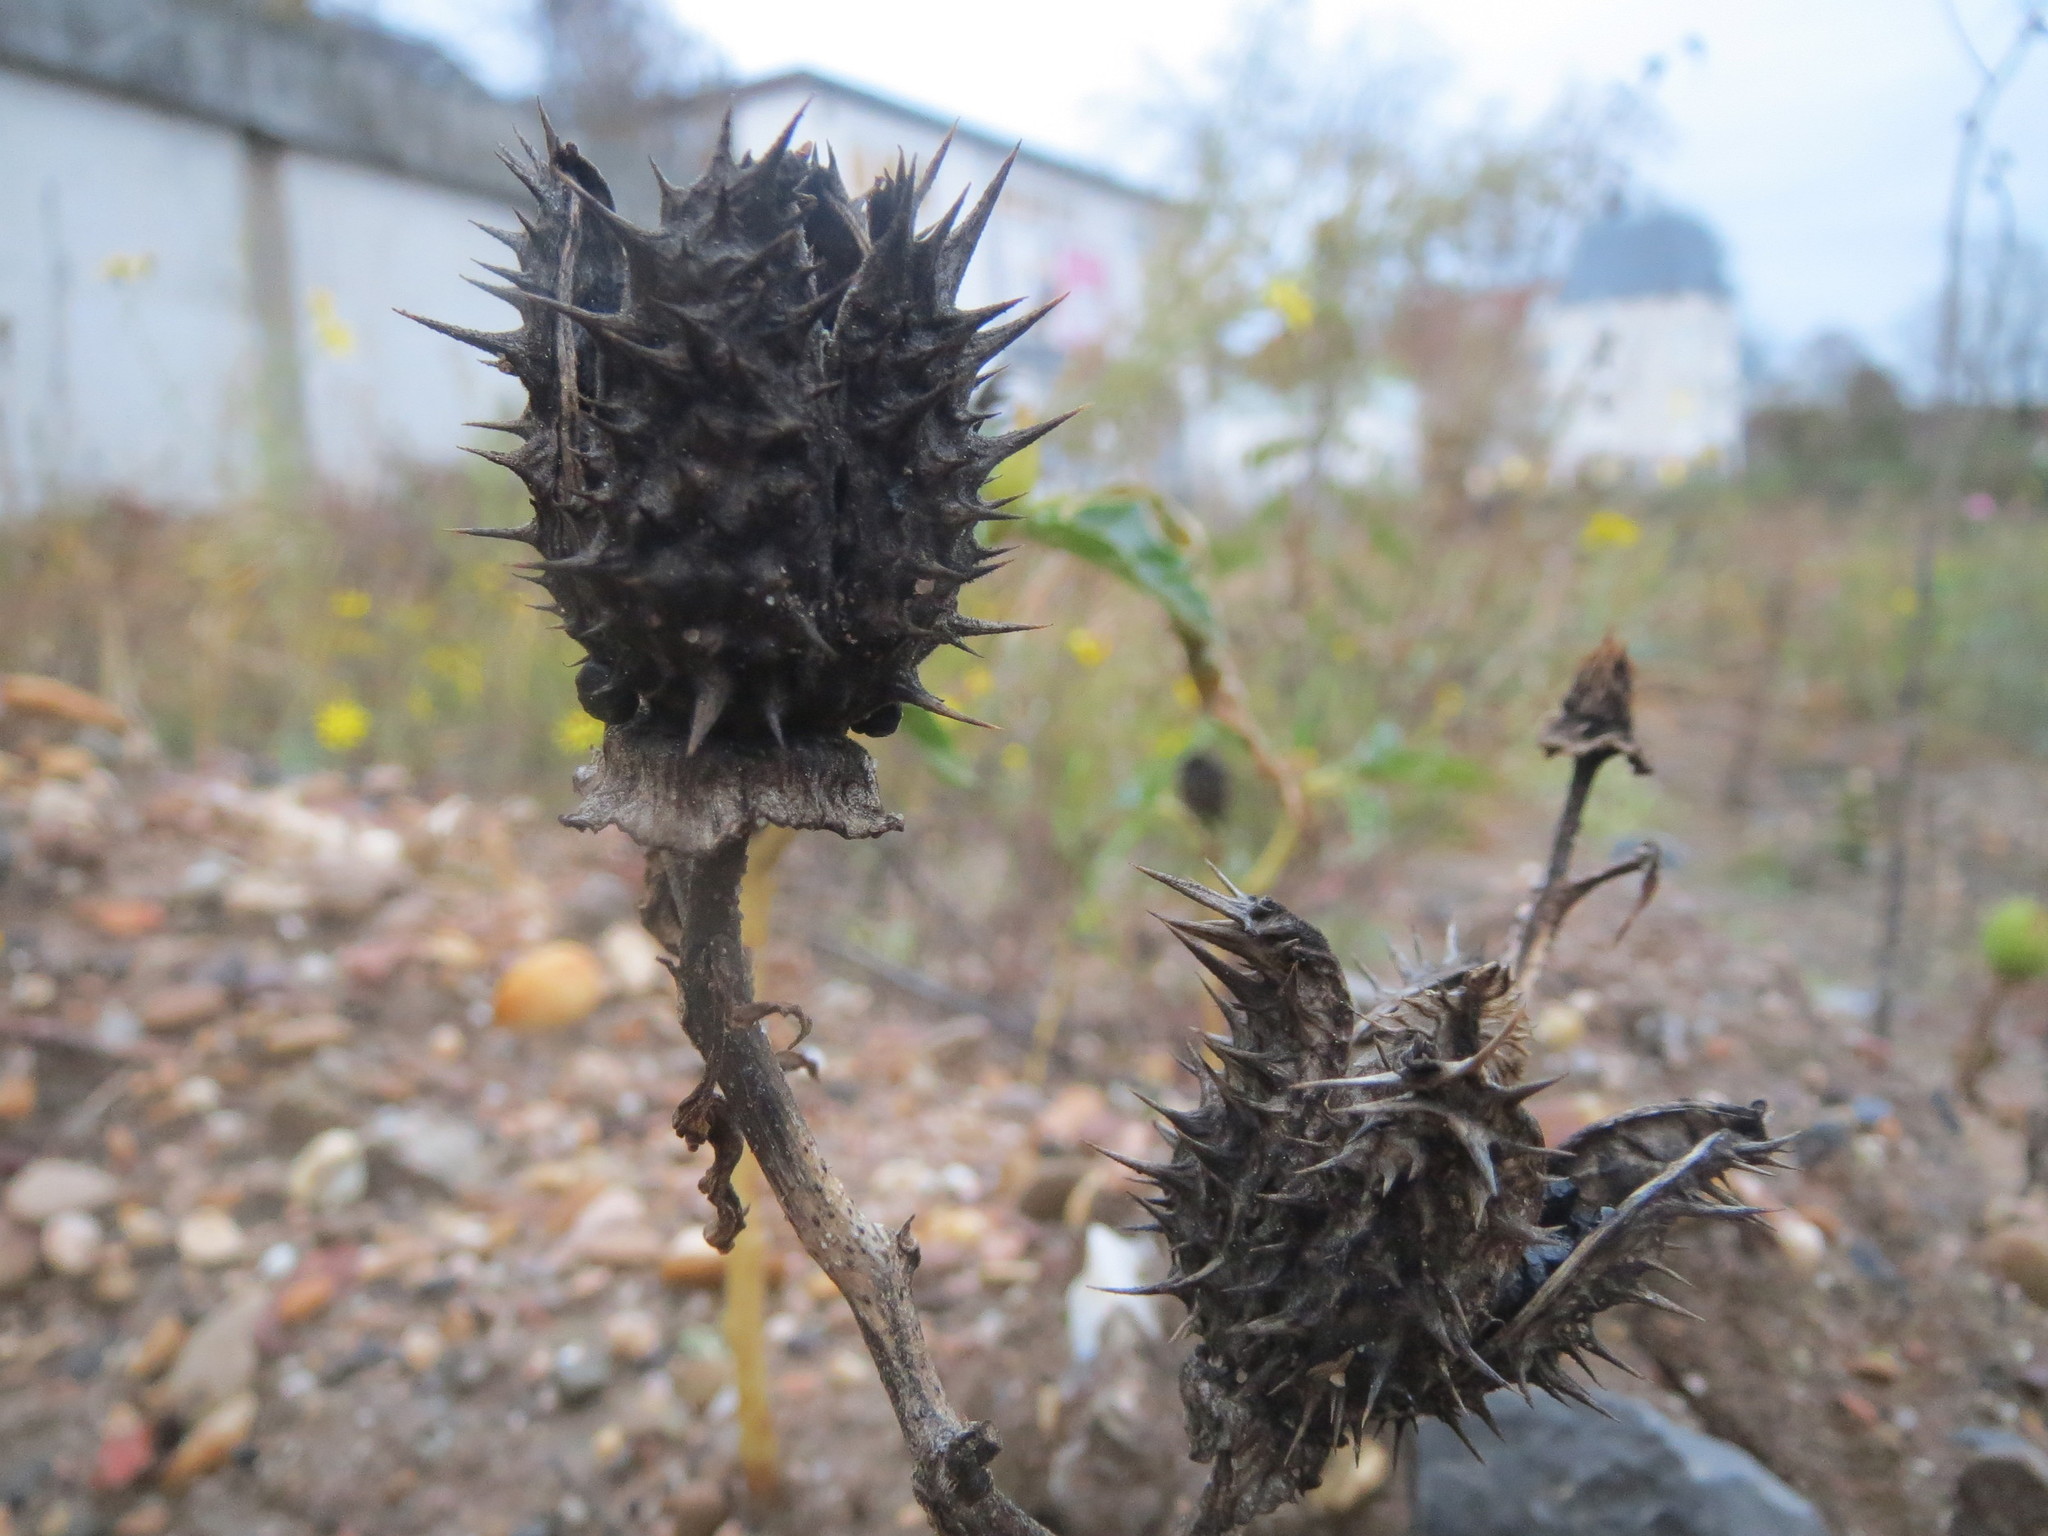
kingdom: Plantae
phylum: Tracheophyta
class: Magnoliopsida
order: Solanales
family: Solanaceae
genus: Datura
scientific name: Datura stramonium
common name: Thorn-apple
